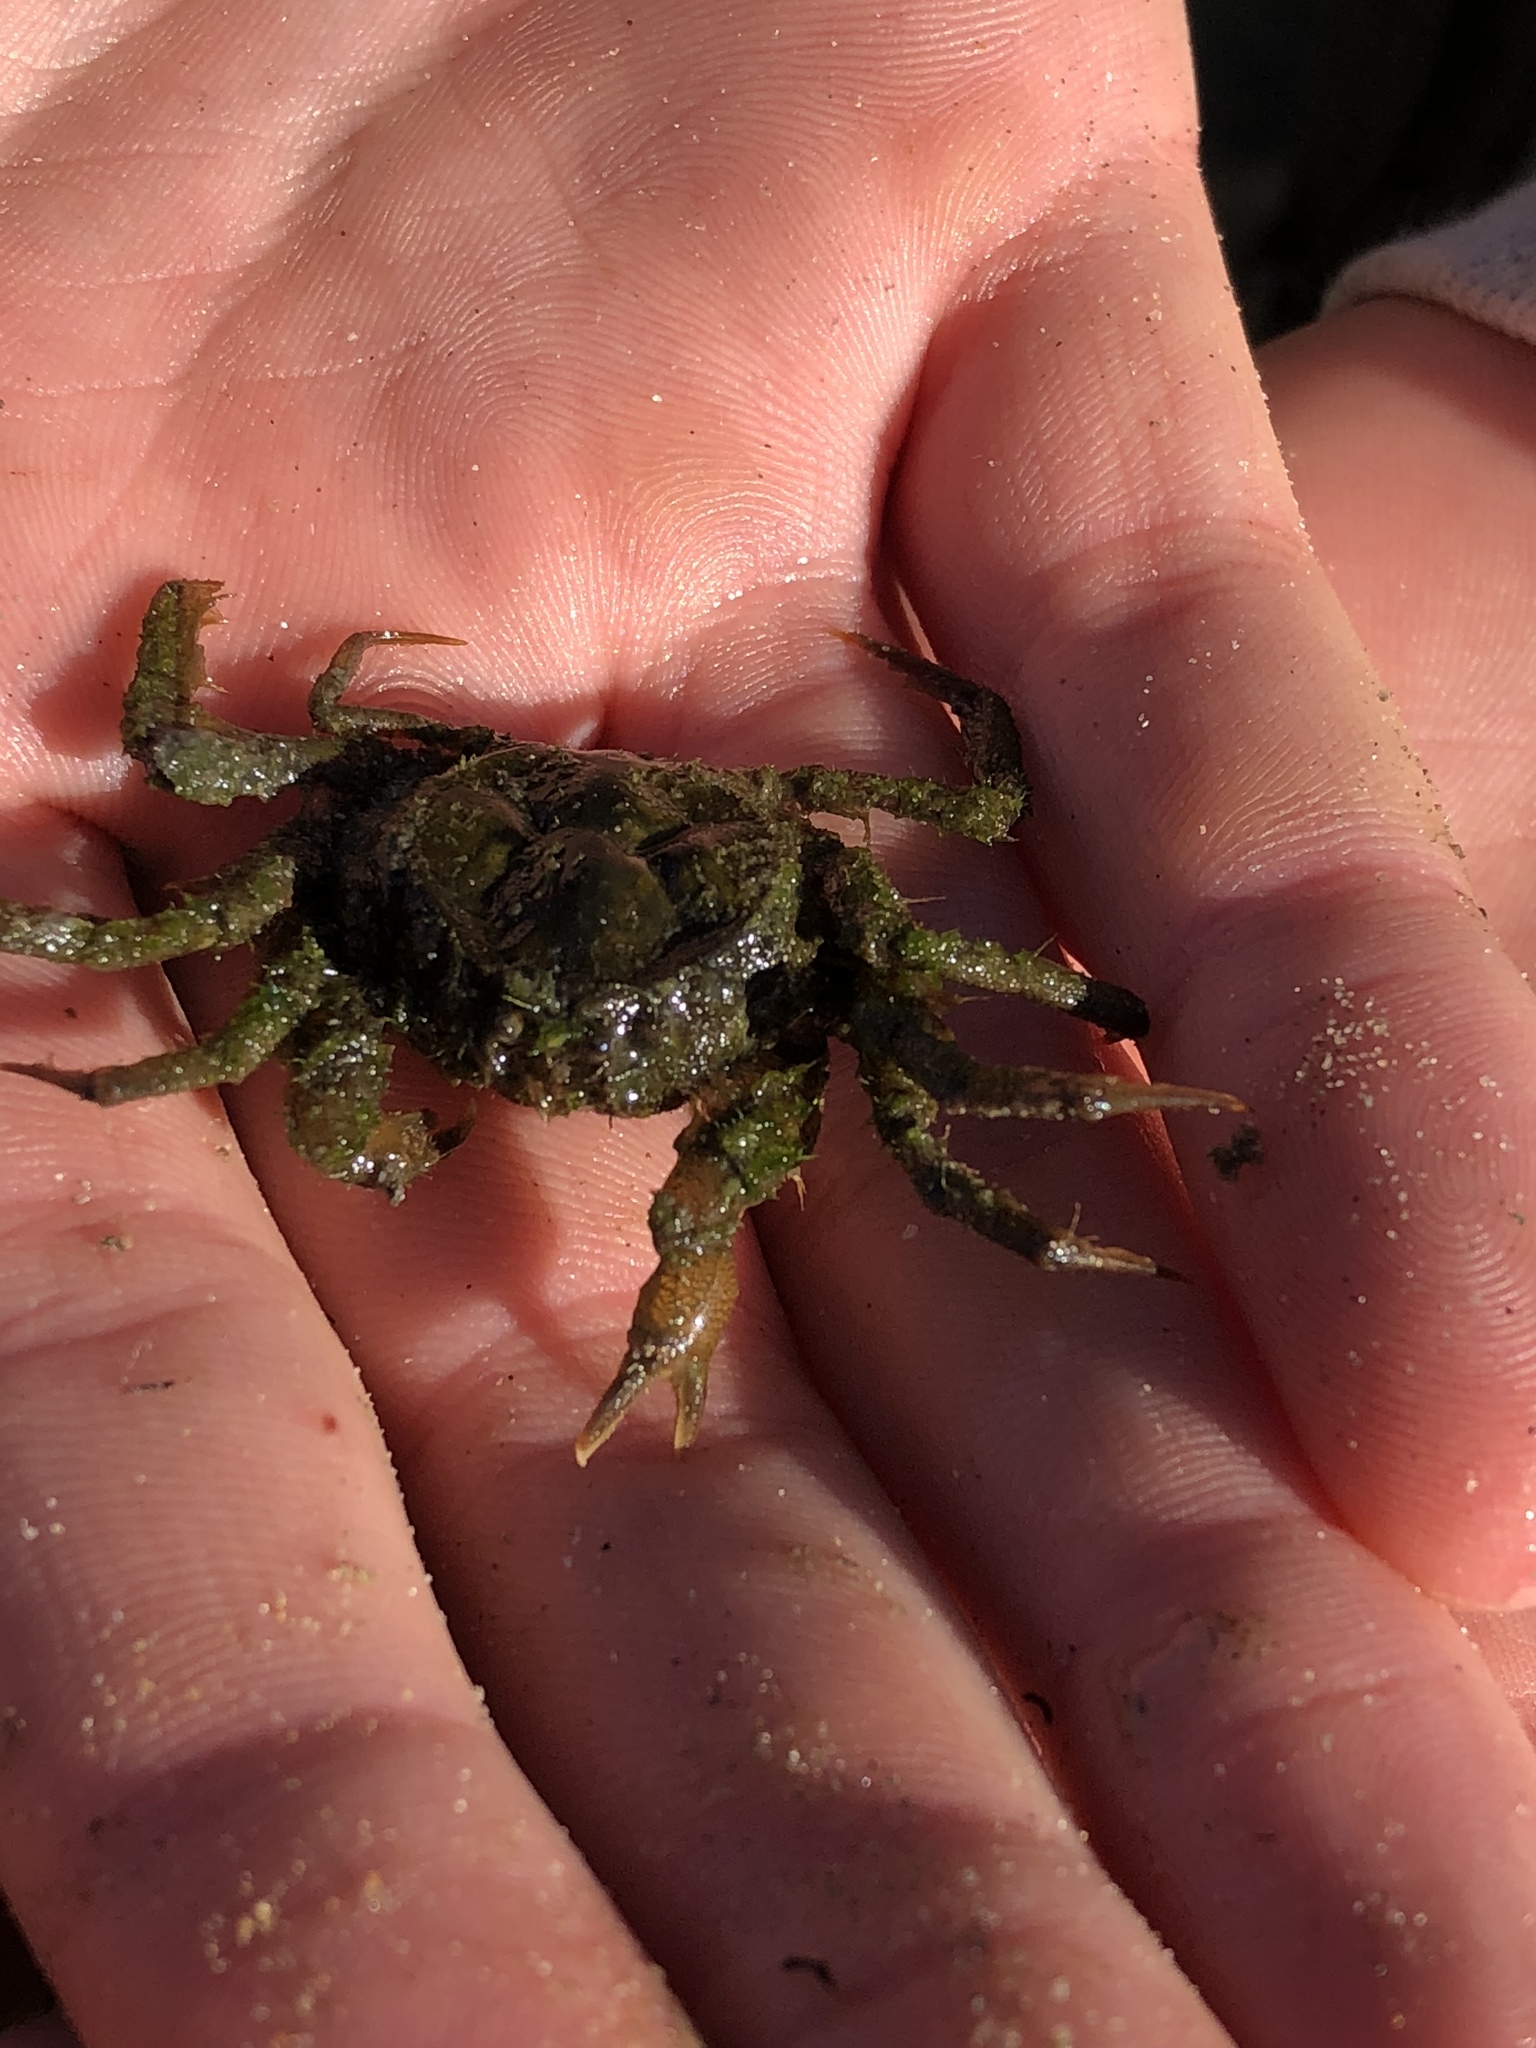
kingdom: Animalia
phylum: Arthropoda
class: Malacostraca
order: Decapoda
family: Hymenosomatidae
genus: Hymenosoma
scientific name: Hymenosoma orbiculare
